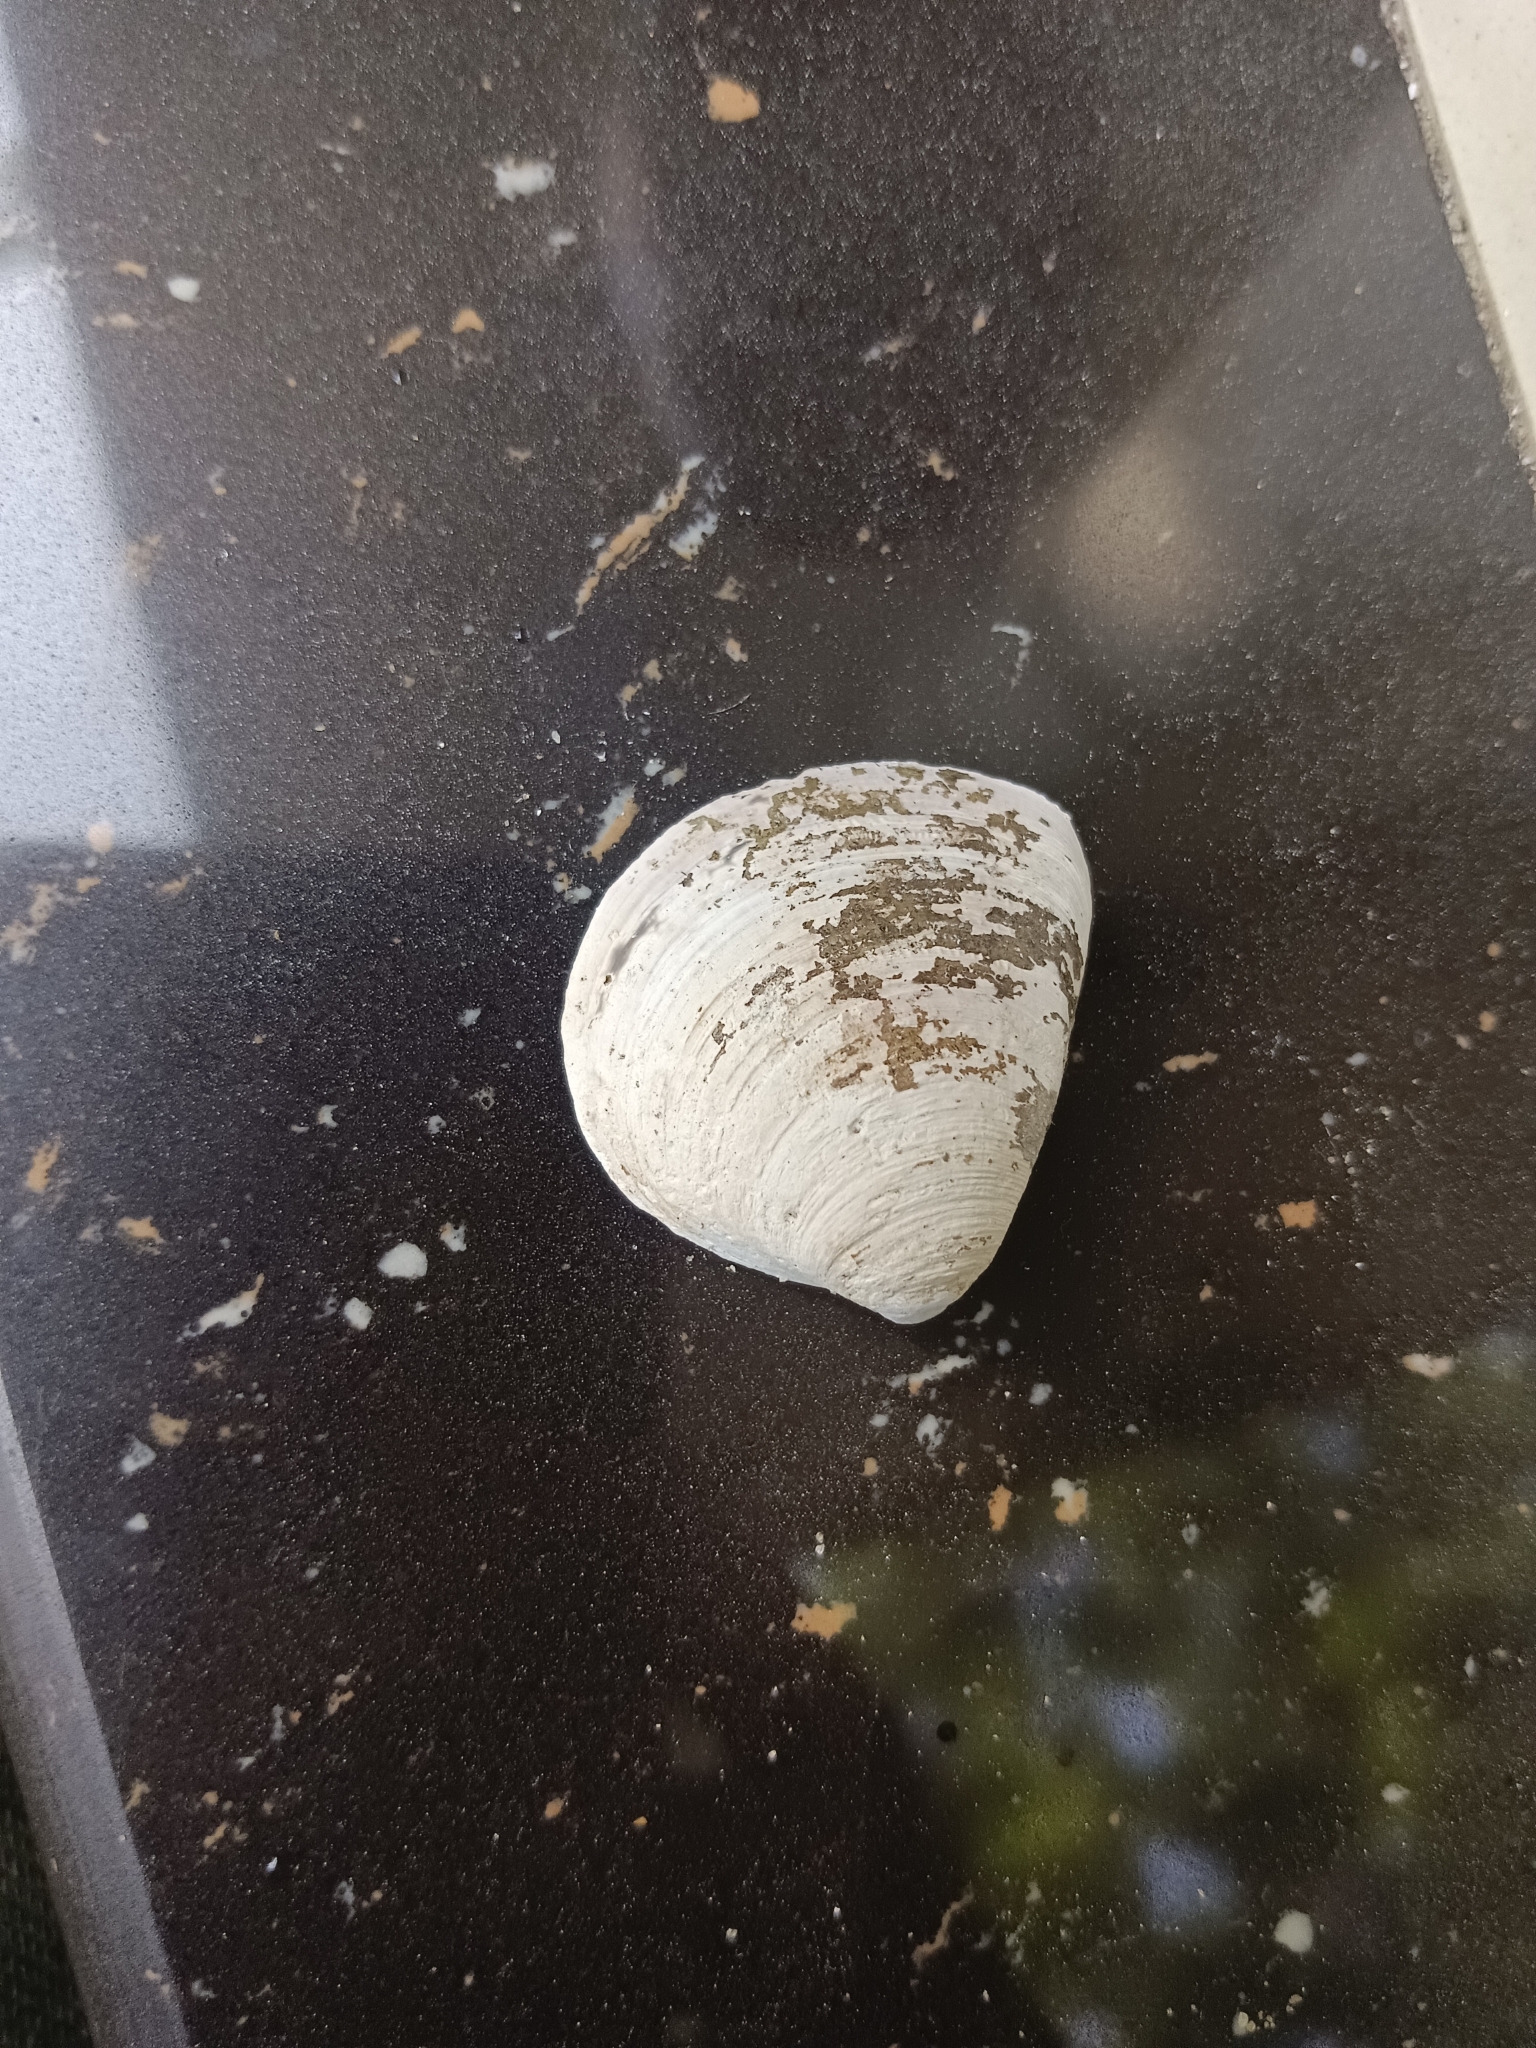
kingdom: Animalia
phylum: Mollusca
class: Bivalvia
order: Venerida
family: Cyrenidae
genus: Villorita
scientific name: Villorita cyprinoides
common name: Black clam
